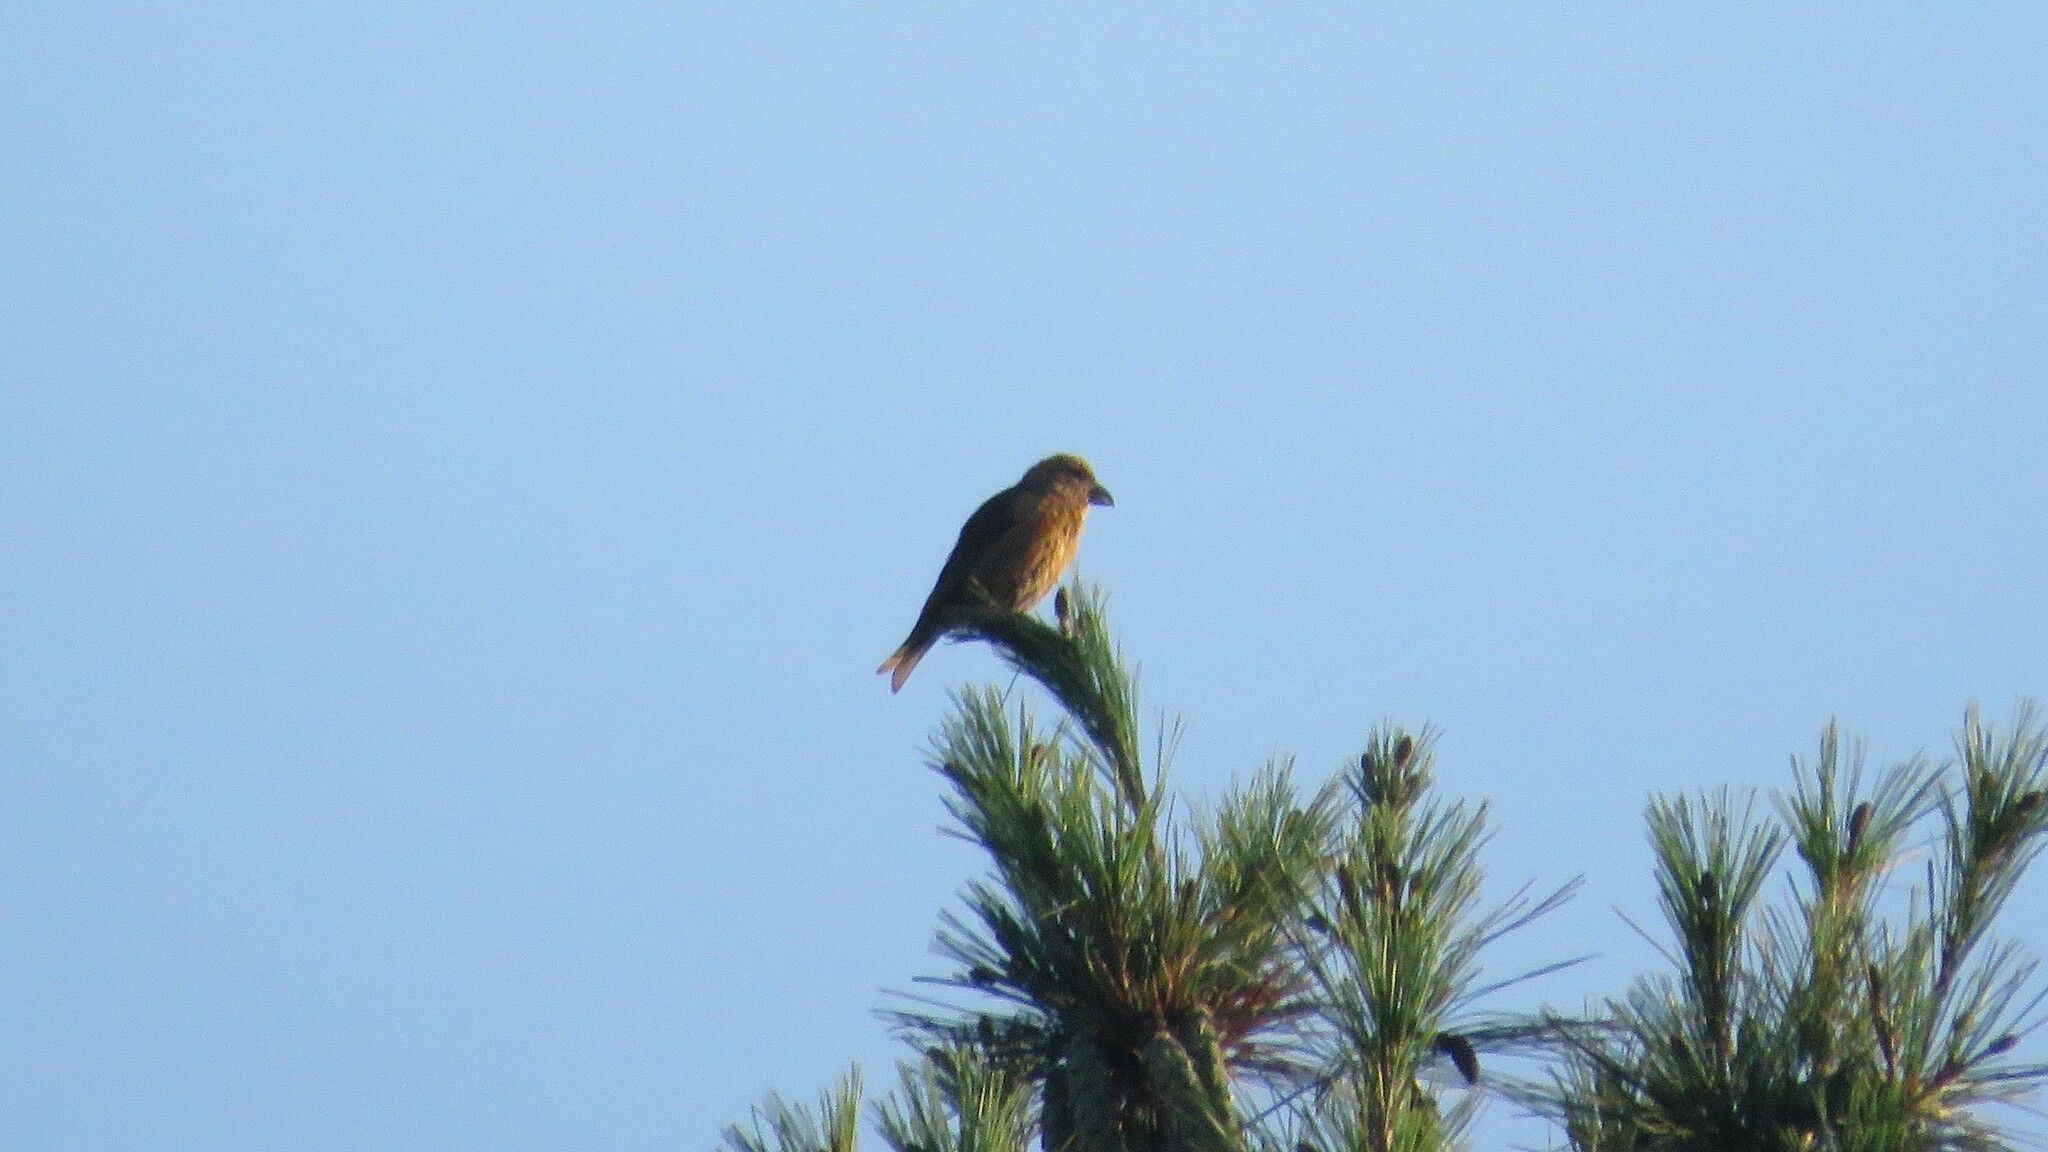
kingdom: Animalia
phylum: Chordata
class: Aves
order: Passeriformes
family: Fringillidae
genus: Loxia
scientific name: Loxia curvirostra
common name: Red crossbill
